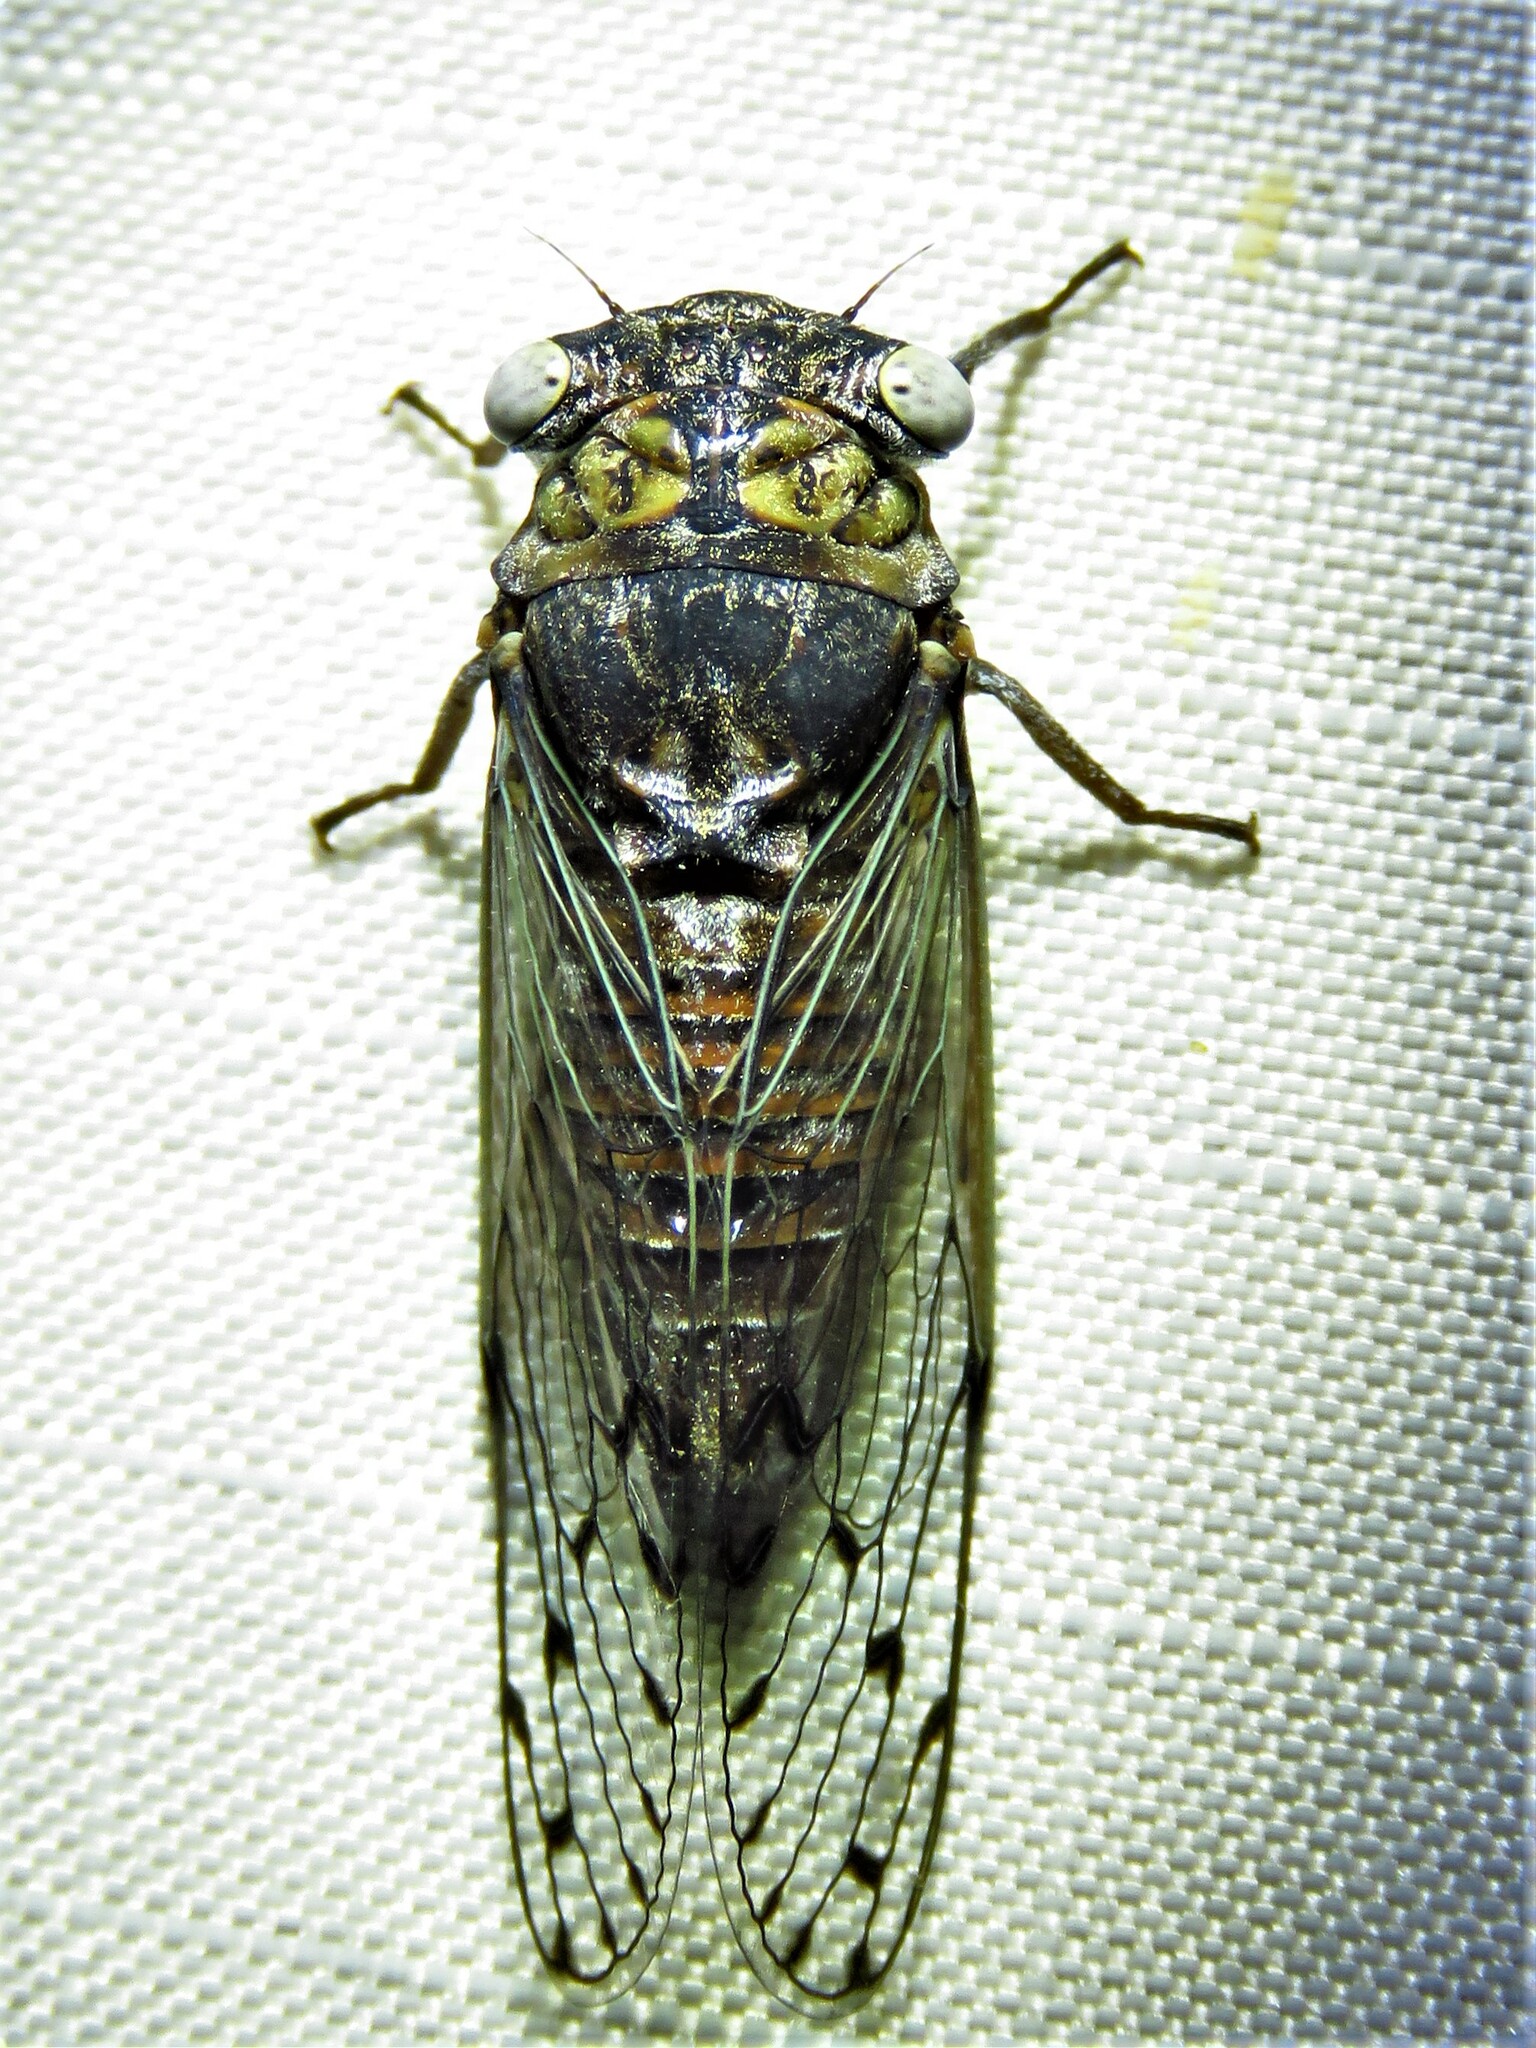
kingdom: Animalia
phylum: Arthropoda
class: Insecta
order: Hemiptera
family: Cicadidae
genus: Pacarina
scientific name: Pacarina puella
